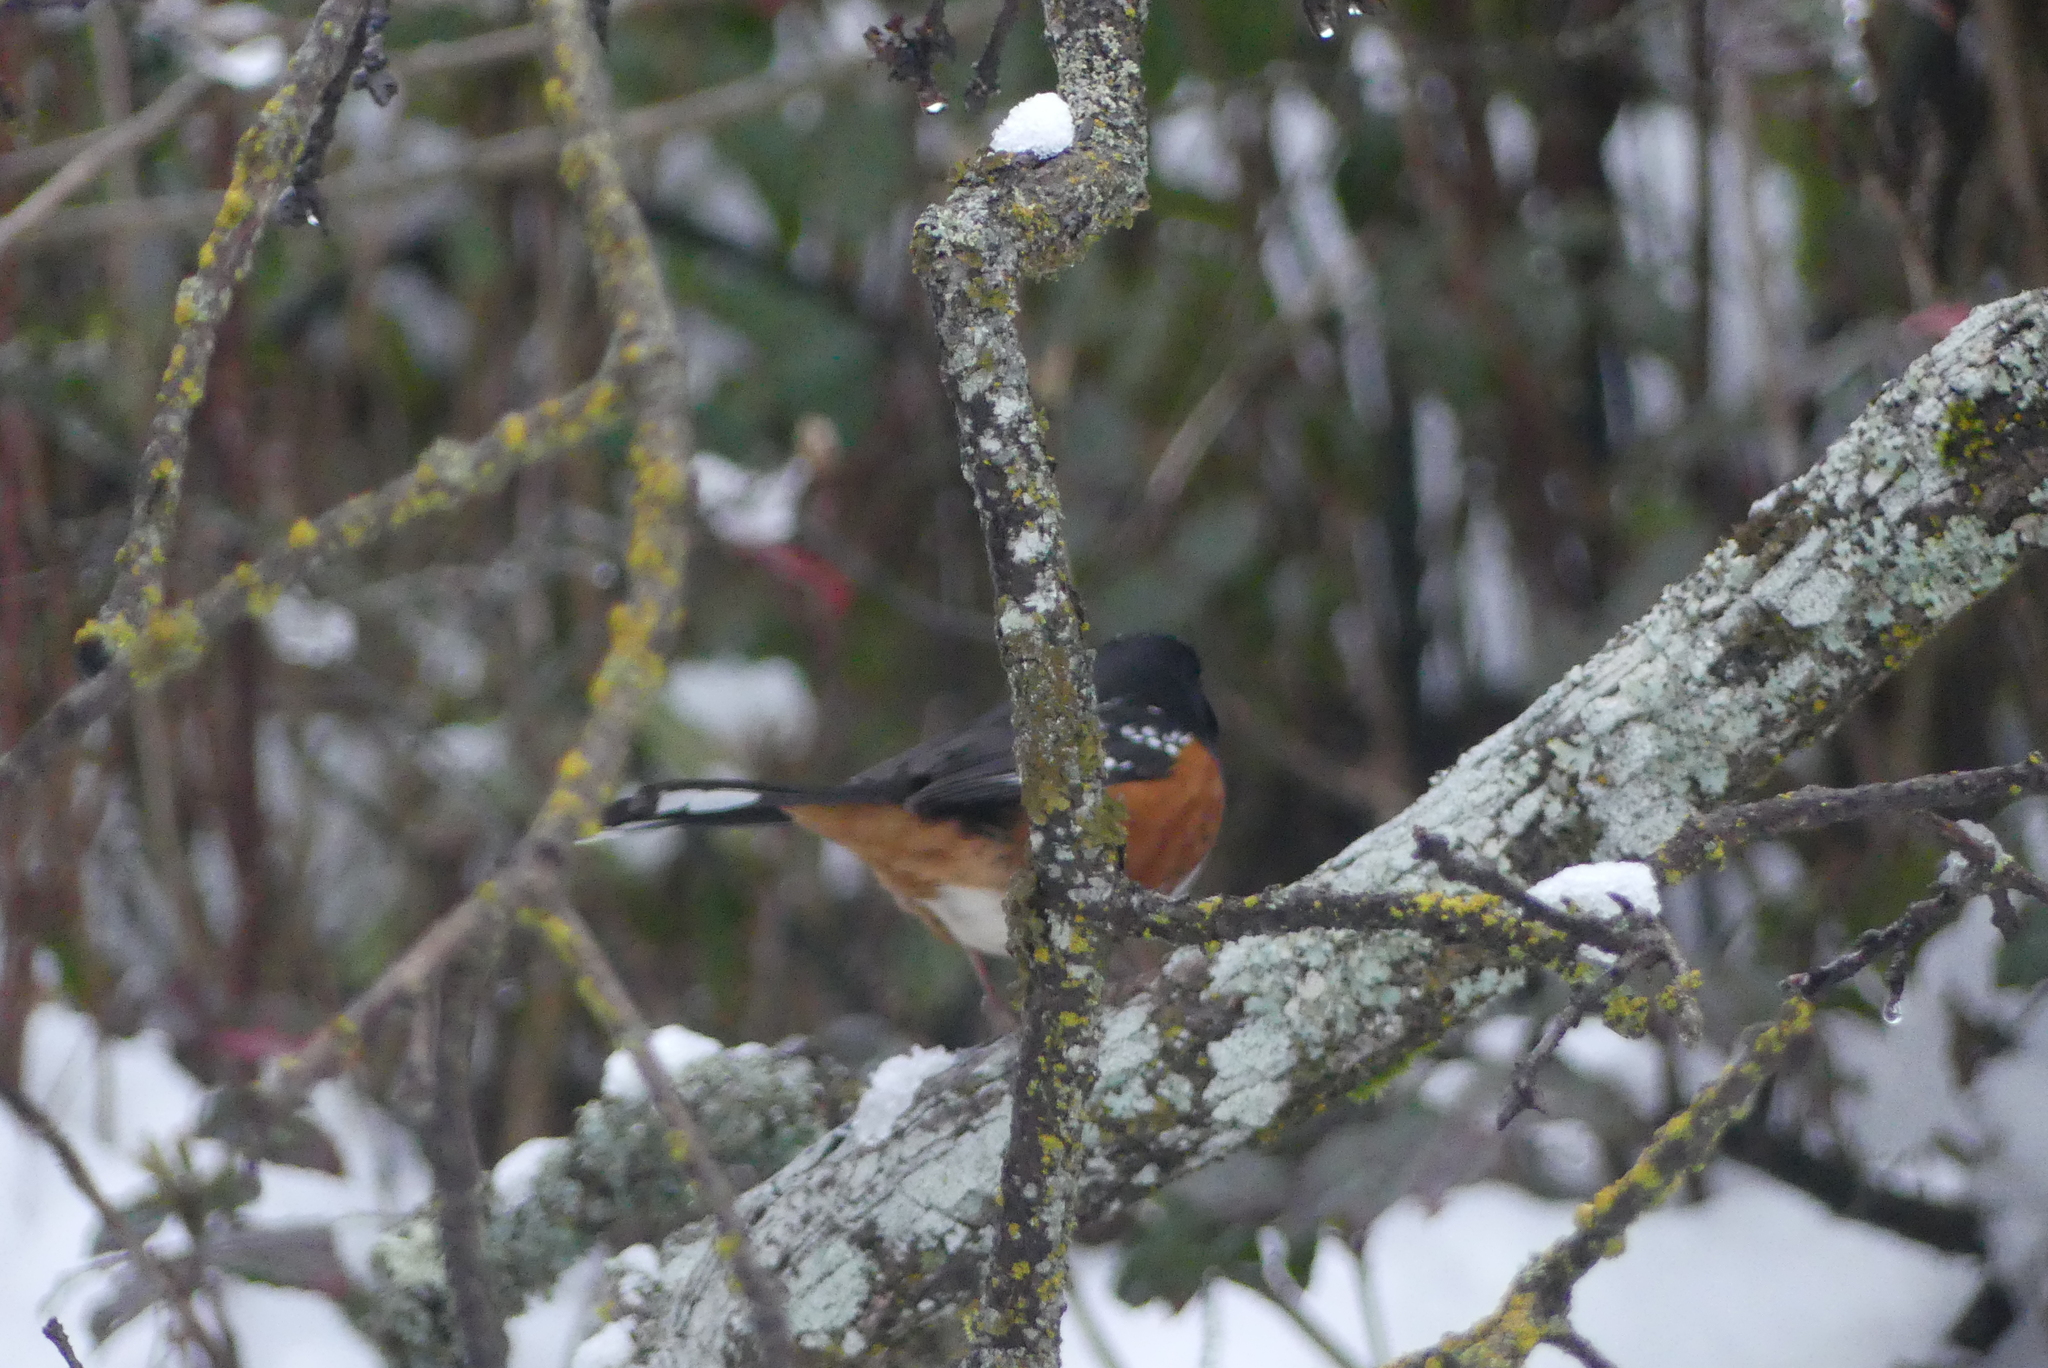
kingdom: Animalia
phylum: Chordata
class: Aves
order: Passeriformes
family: Passerellidae
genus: Pipilo
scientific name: Pipilo maculatus
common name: Spotted towhee
